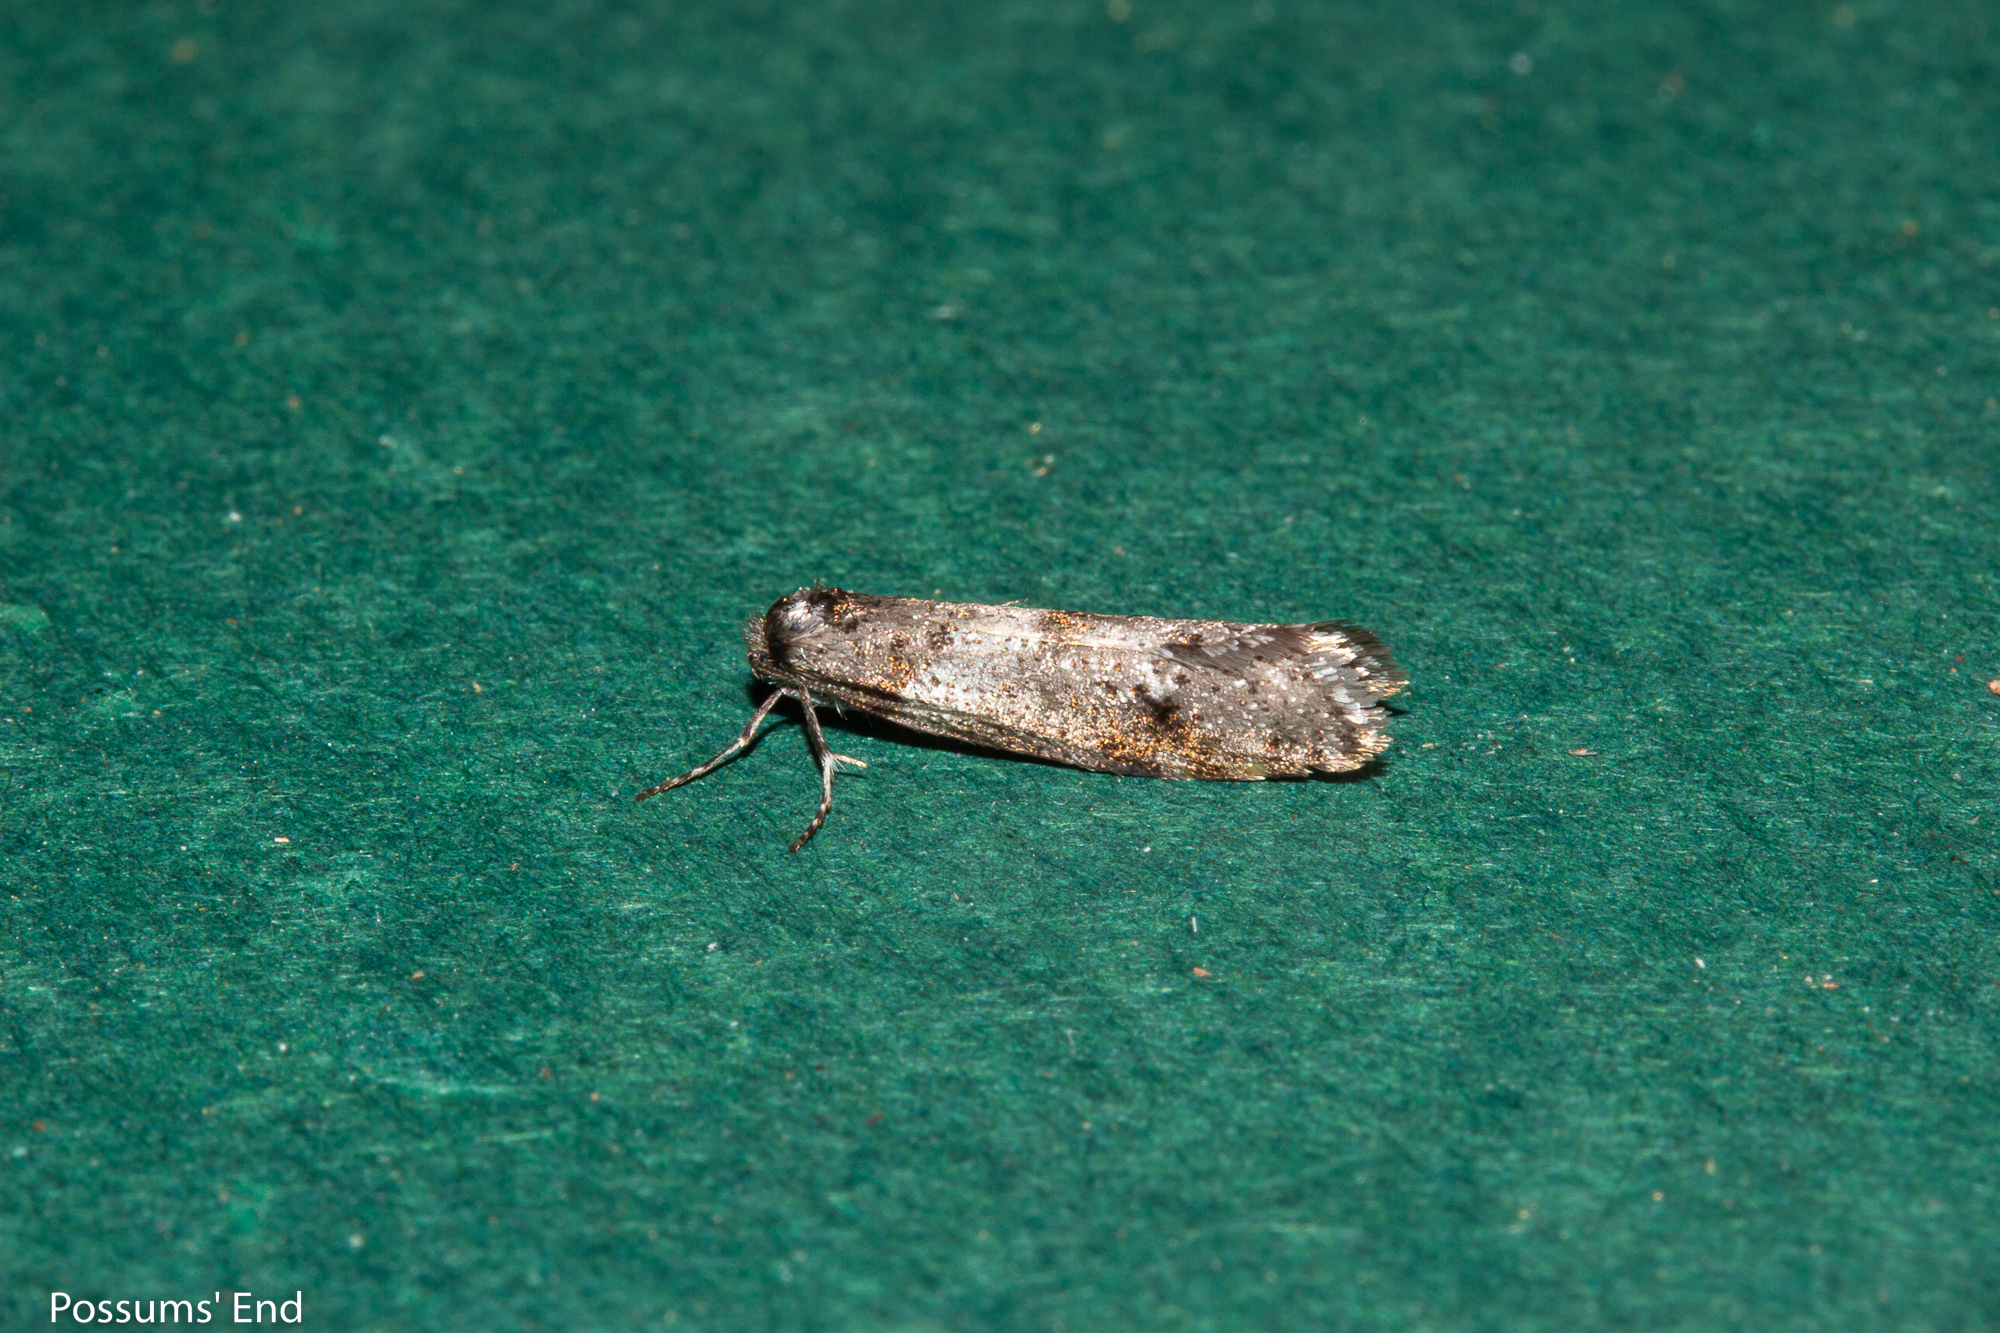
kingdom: Animalia
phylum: Arthropoda
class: Insecta
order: Lepidoptera
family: Psychidae
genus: Lepidoscia
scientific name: Lepidoscia heliochares
